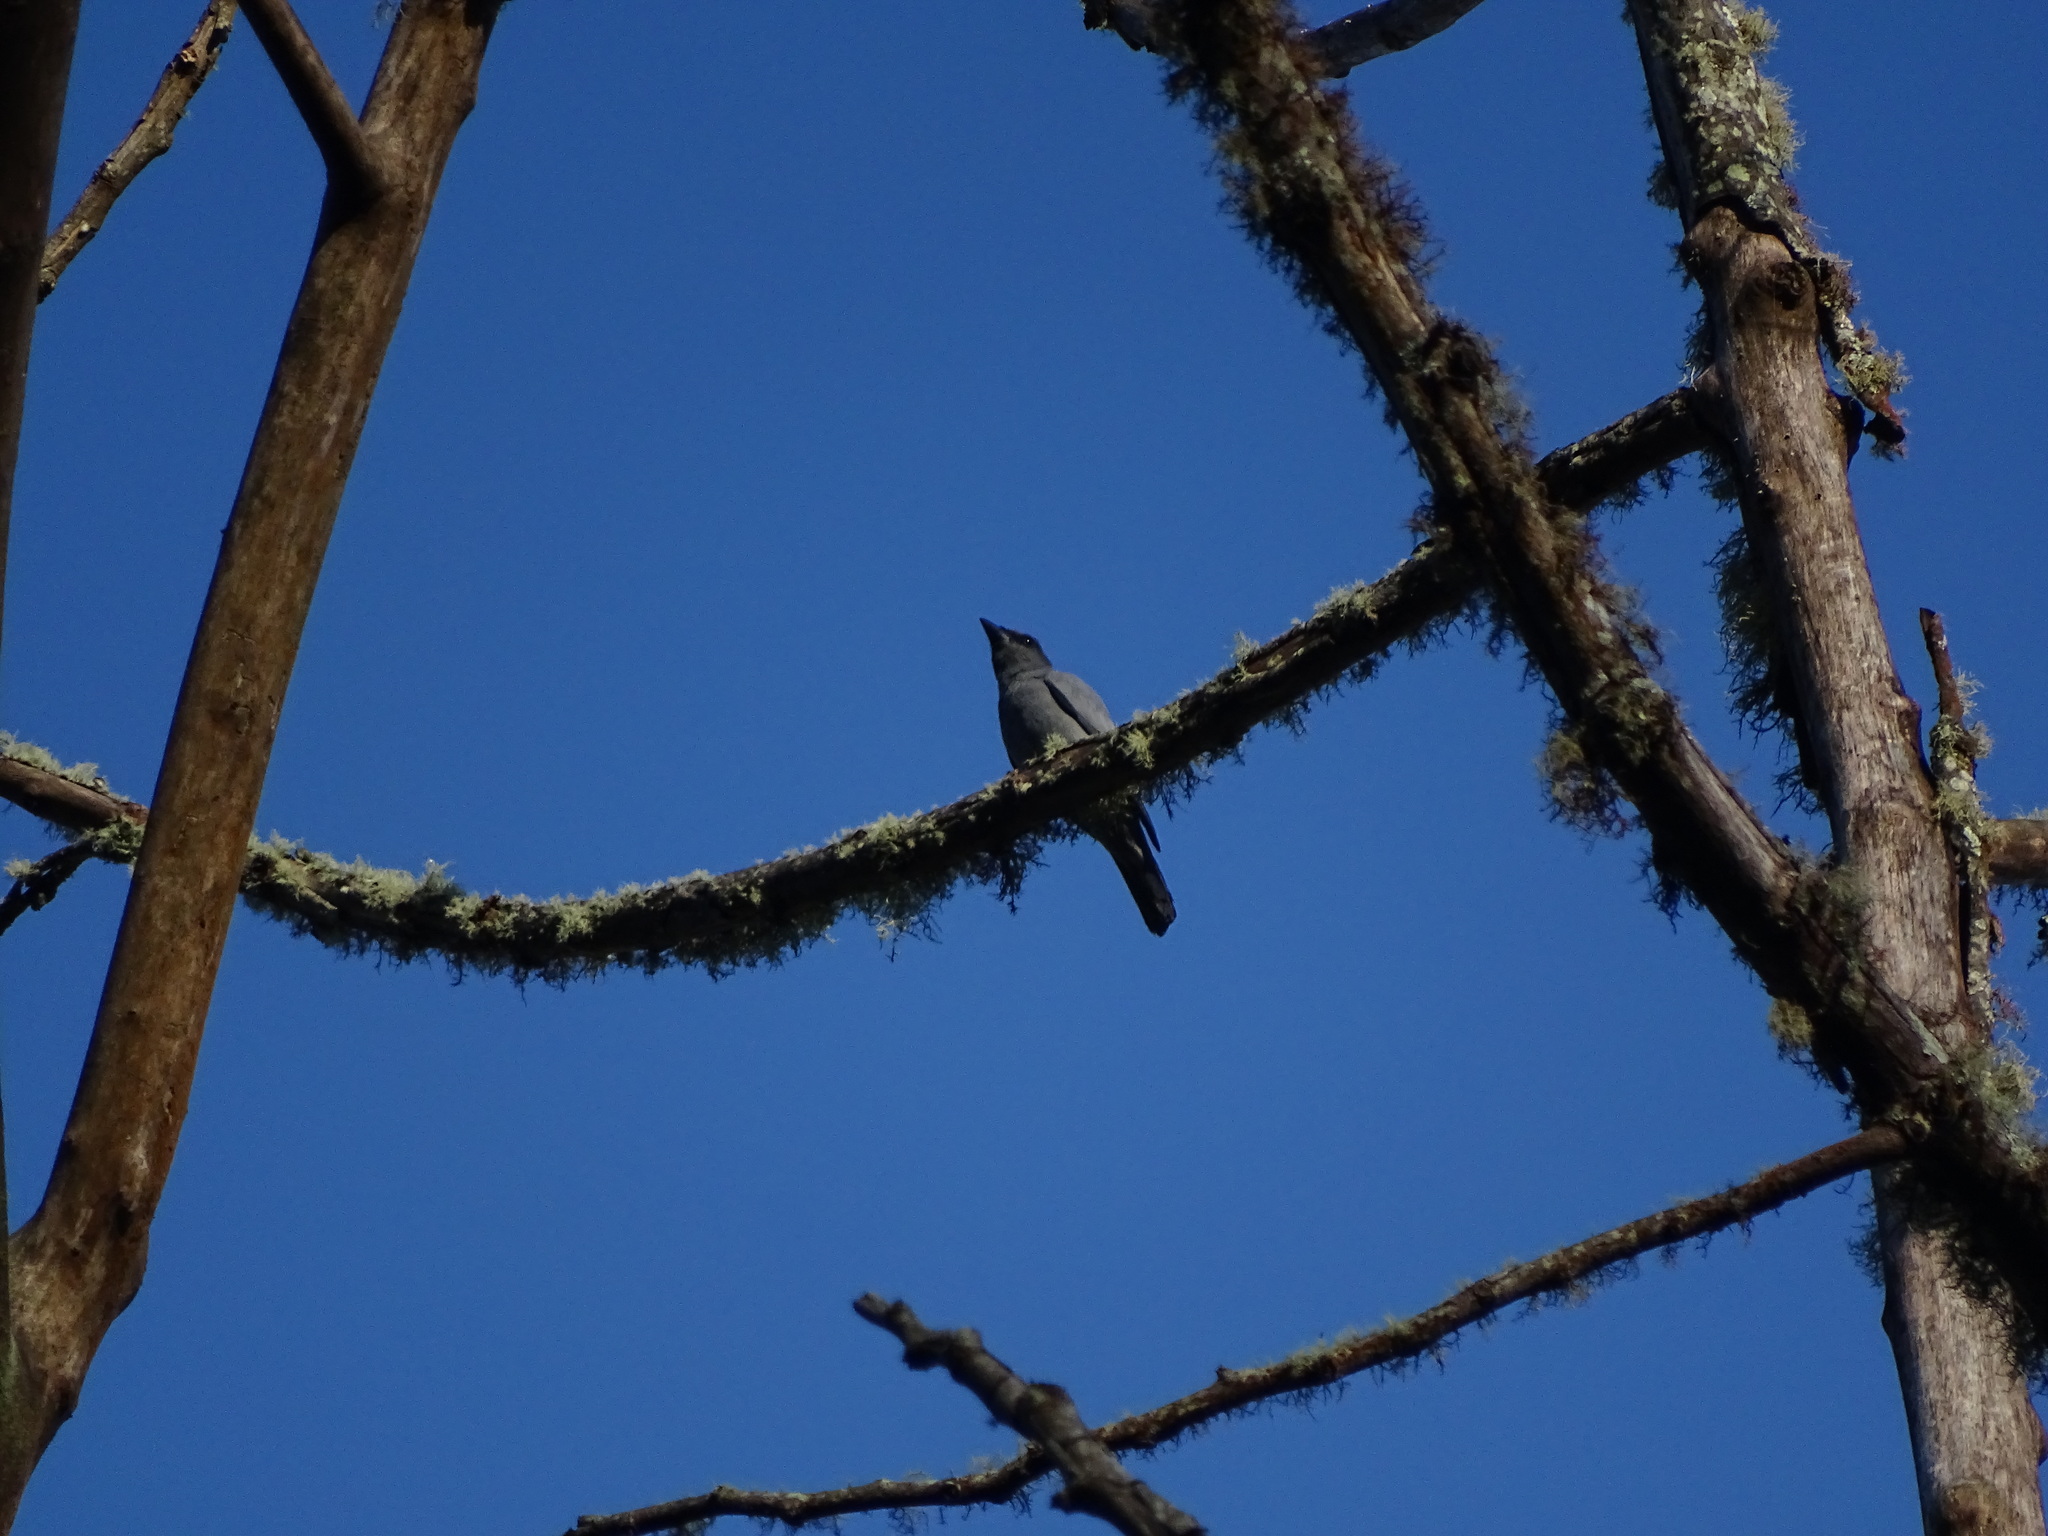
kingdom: Animalia
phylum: Chordata
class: Aves
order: Passeriformes
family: Campephagidae
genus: Coracina
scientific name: Coracina larvata
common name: Sunda cuckooshrike
